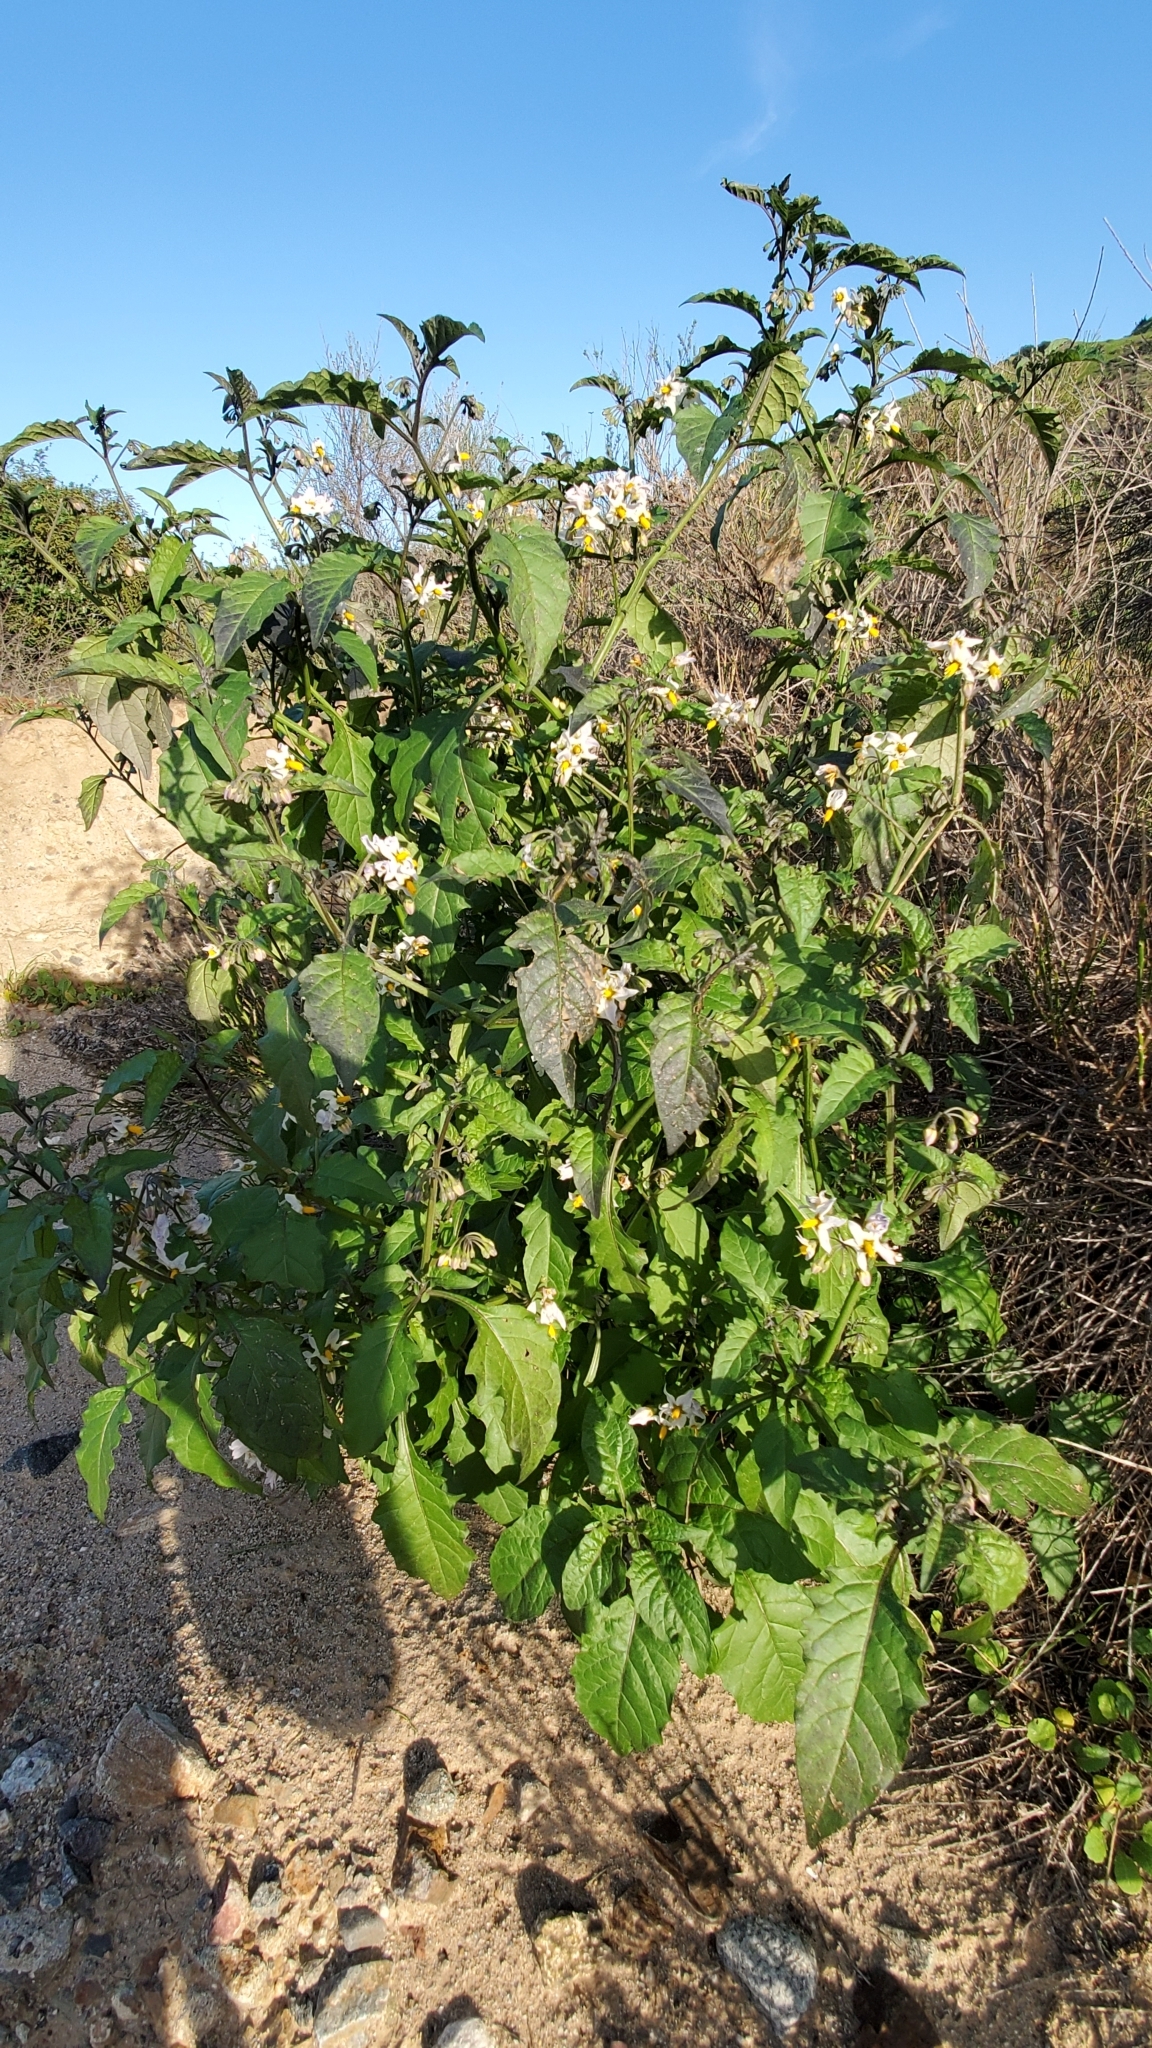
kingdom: Plantae
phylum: Tracheophyta
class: Magnoliopsida
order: Solanales
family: Solanaceae
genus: Solanum
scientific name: Solanum douglasii
